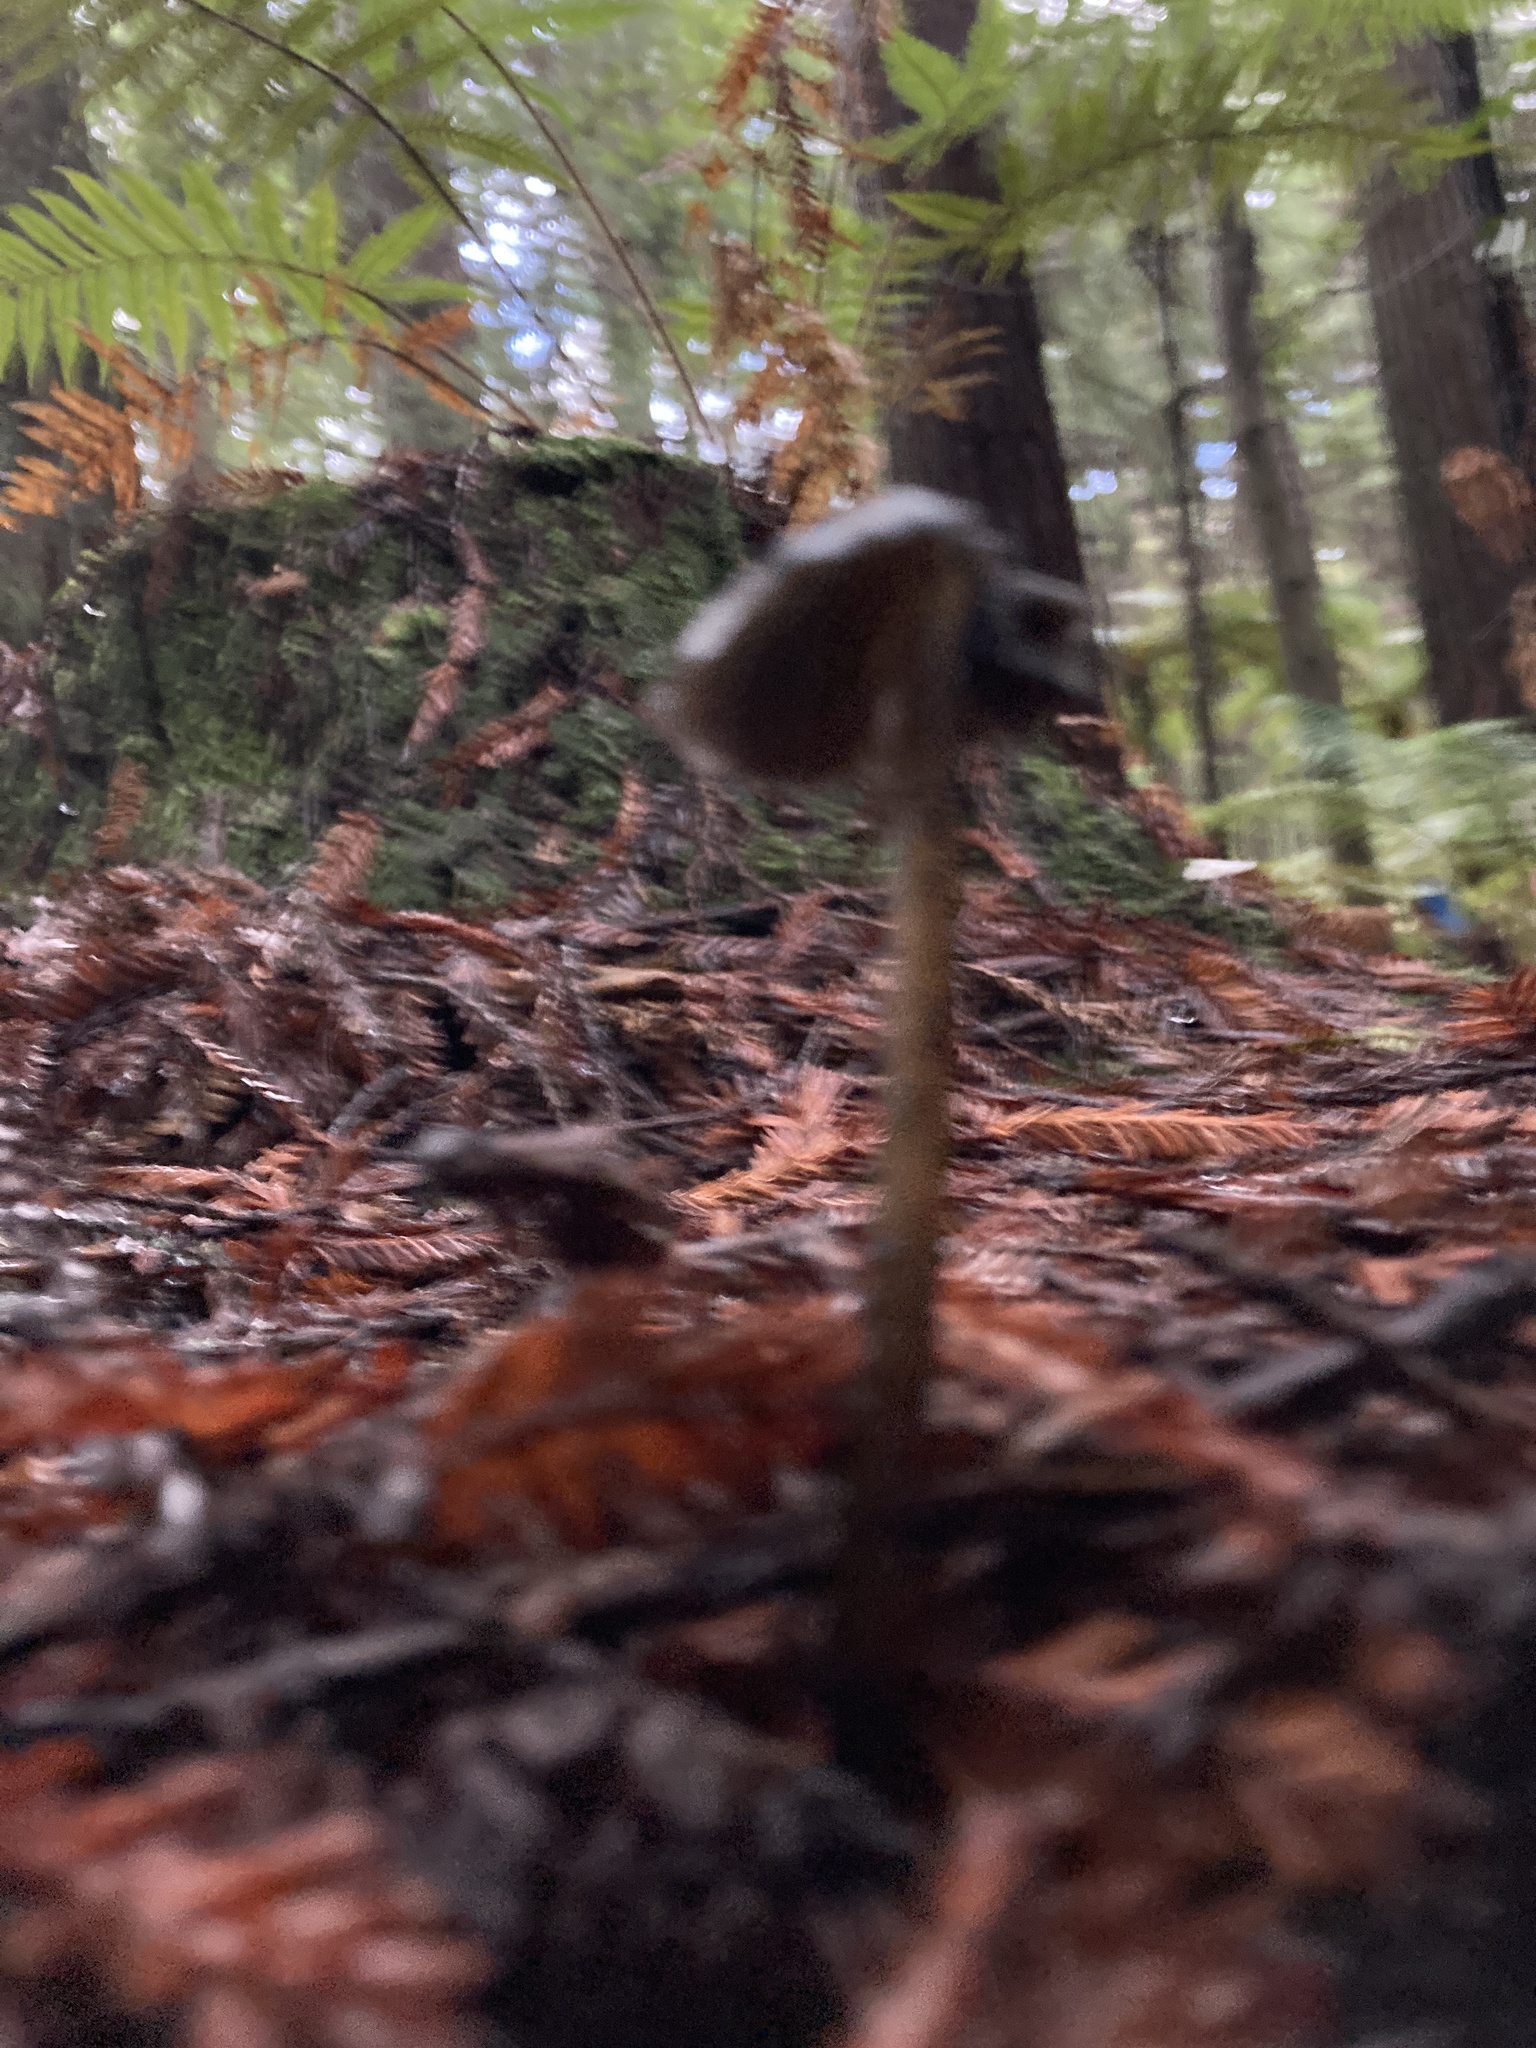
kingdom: Fungi
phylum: Basidiomycota
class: Agaricomycetes
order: Agaricales
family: Hygrophoraceae
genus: Hygrocybe
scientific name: Hygrocybe astatogala
